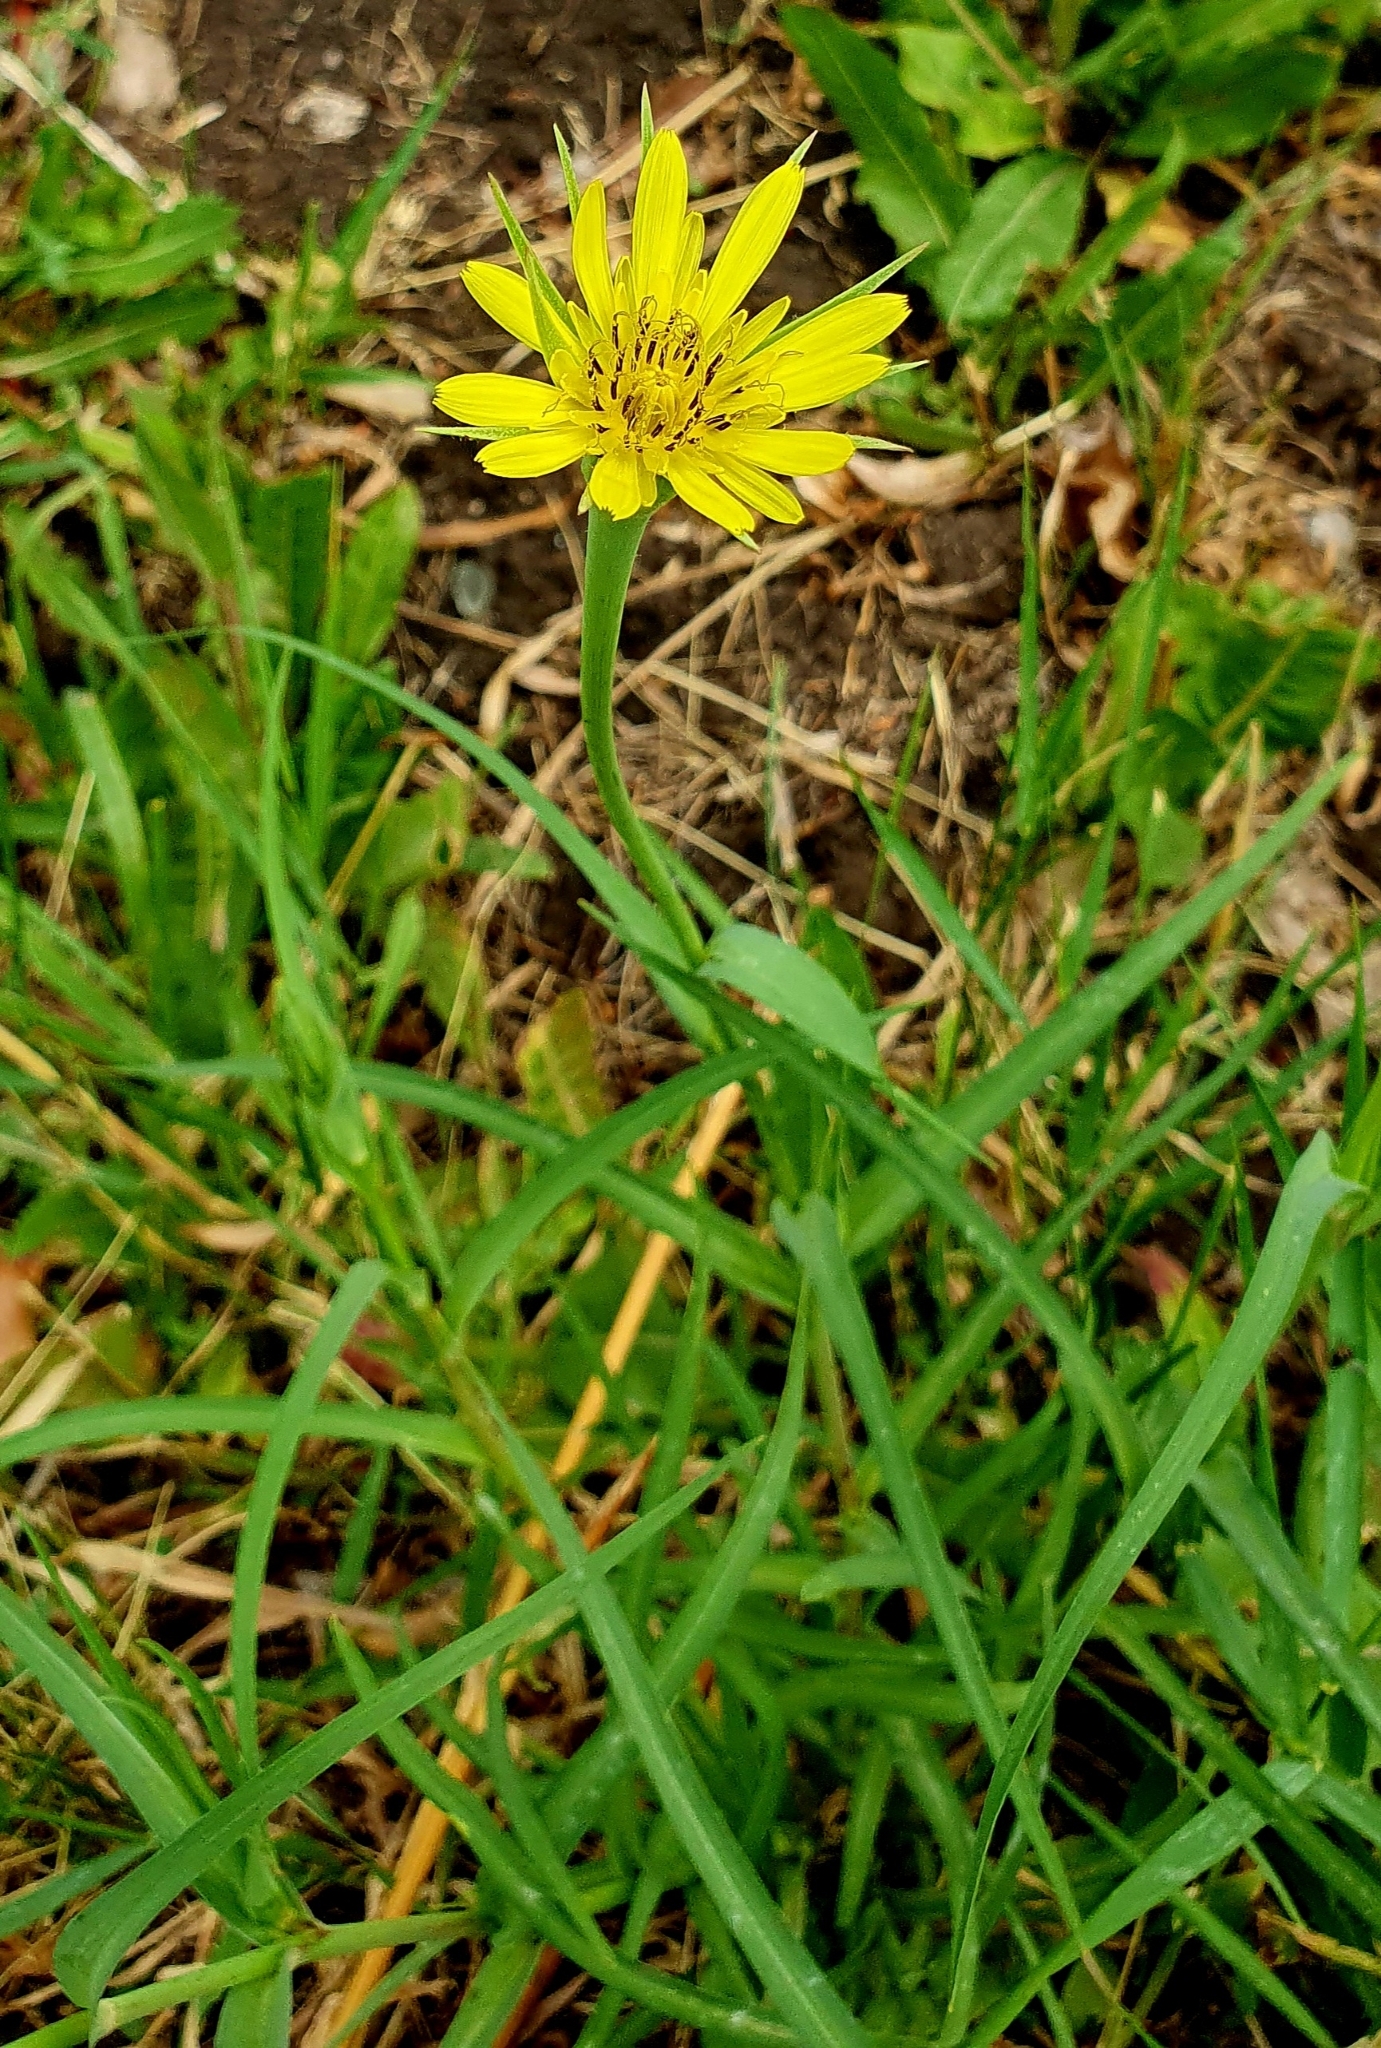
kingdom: Plantae
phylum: Tracheophyta
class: Magnoliopsida
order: Asterales
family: Asteraceae
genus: Tragopogon
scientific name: Tragopogon dubius
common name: Yellow salsify
